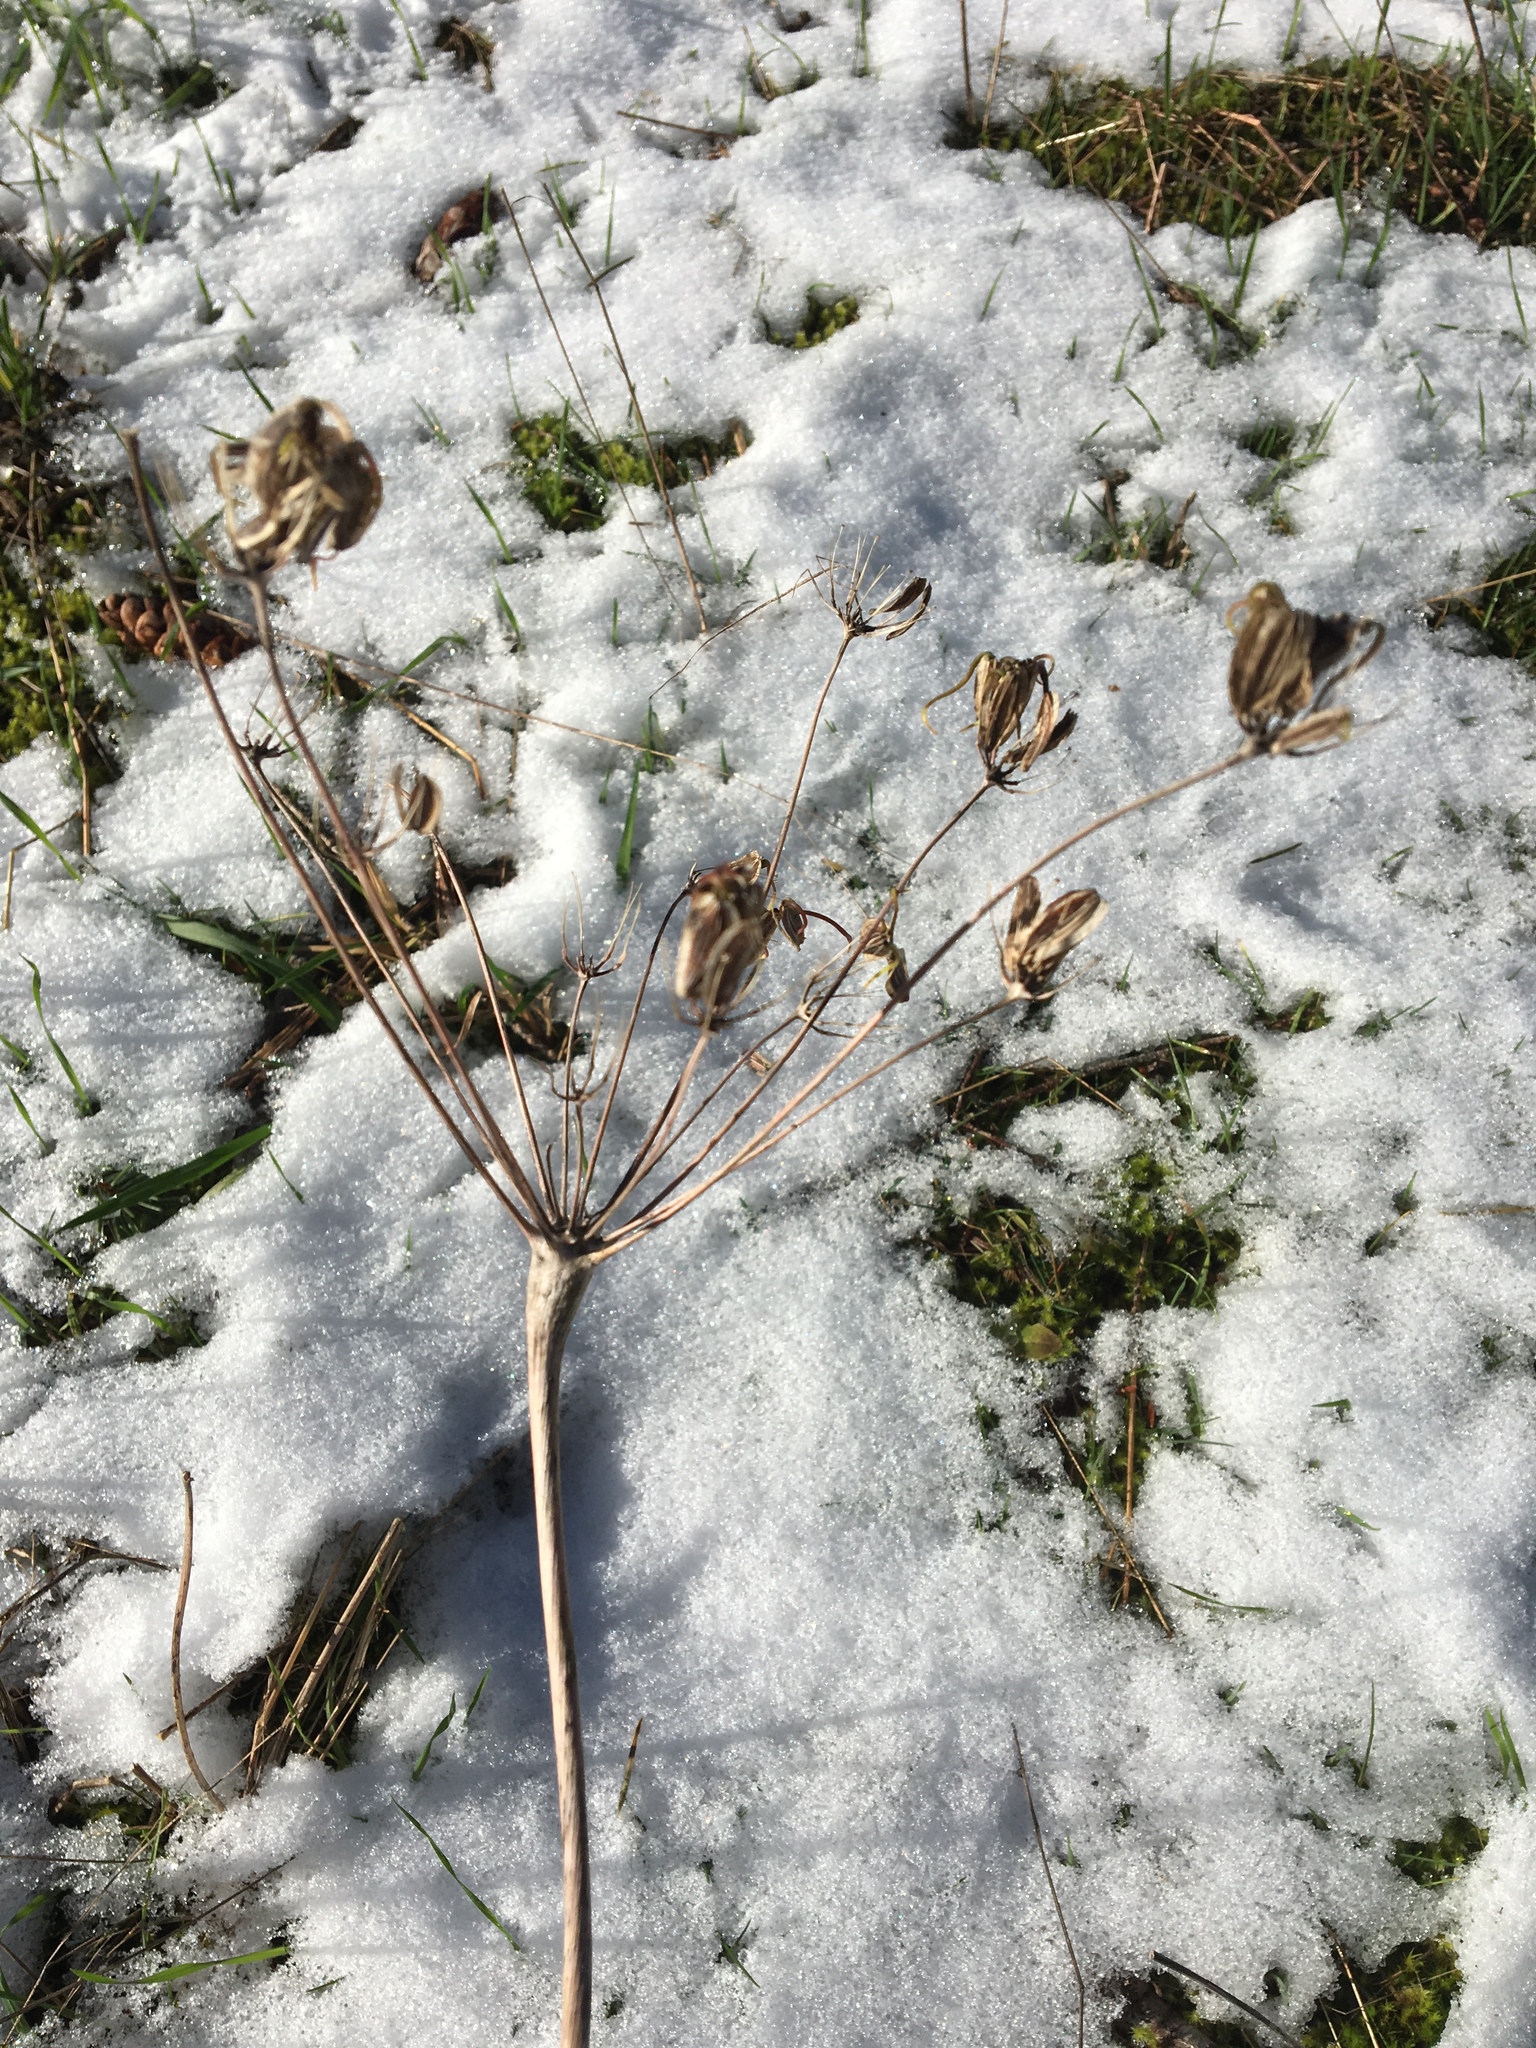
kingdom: Plantae
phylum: Tracheophyta
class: Magnoliopsida
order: Apiales
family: Apiaceae
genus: Lomatium
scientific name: Lomatium nudicaule
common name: Pestle lomatium
